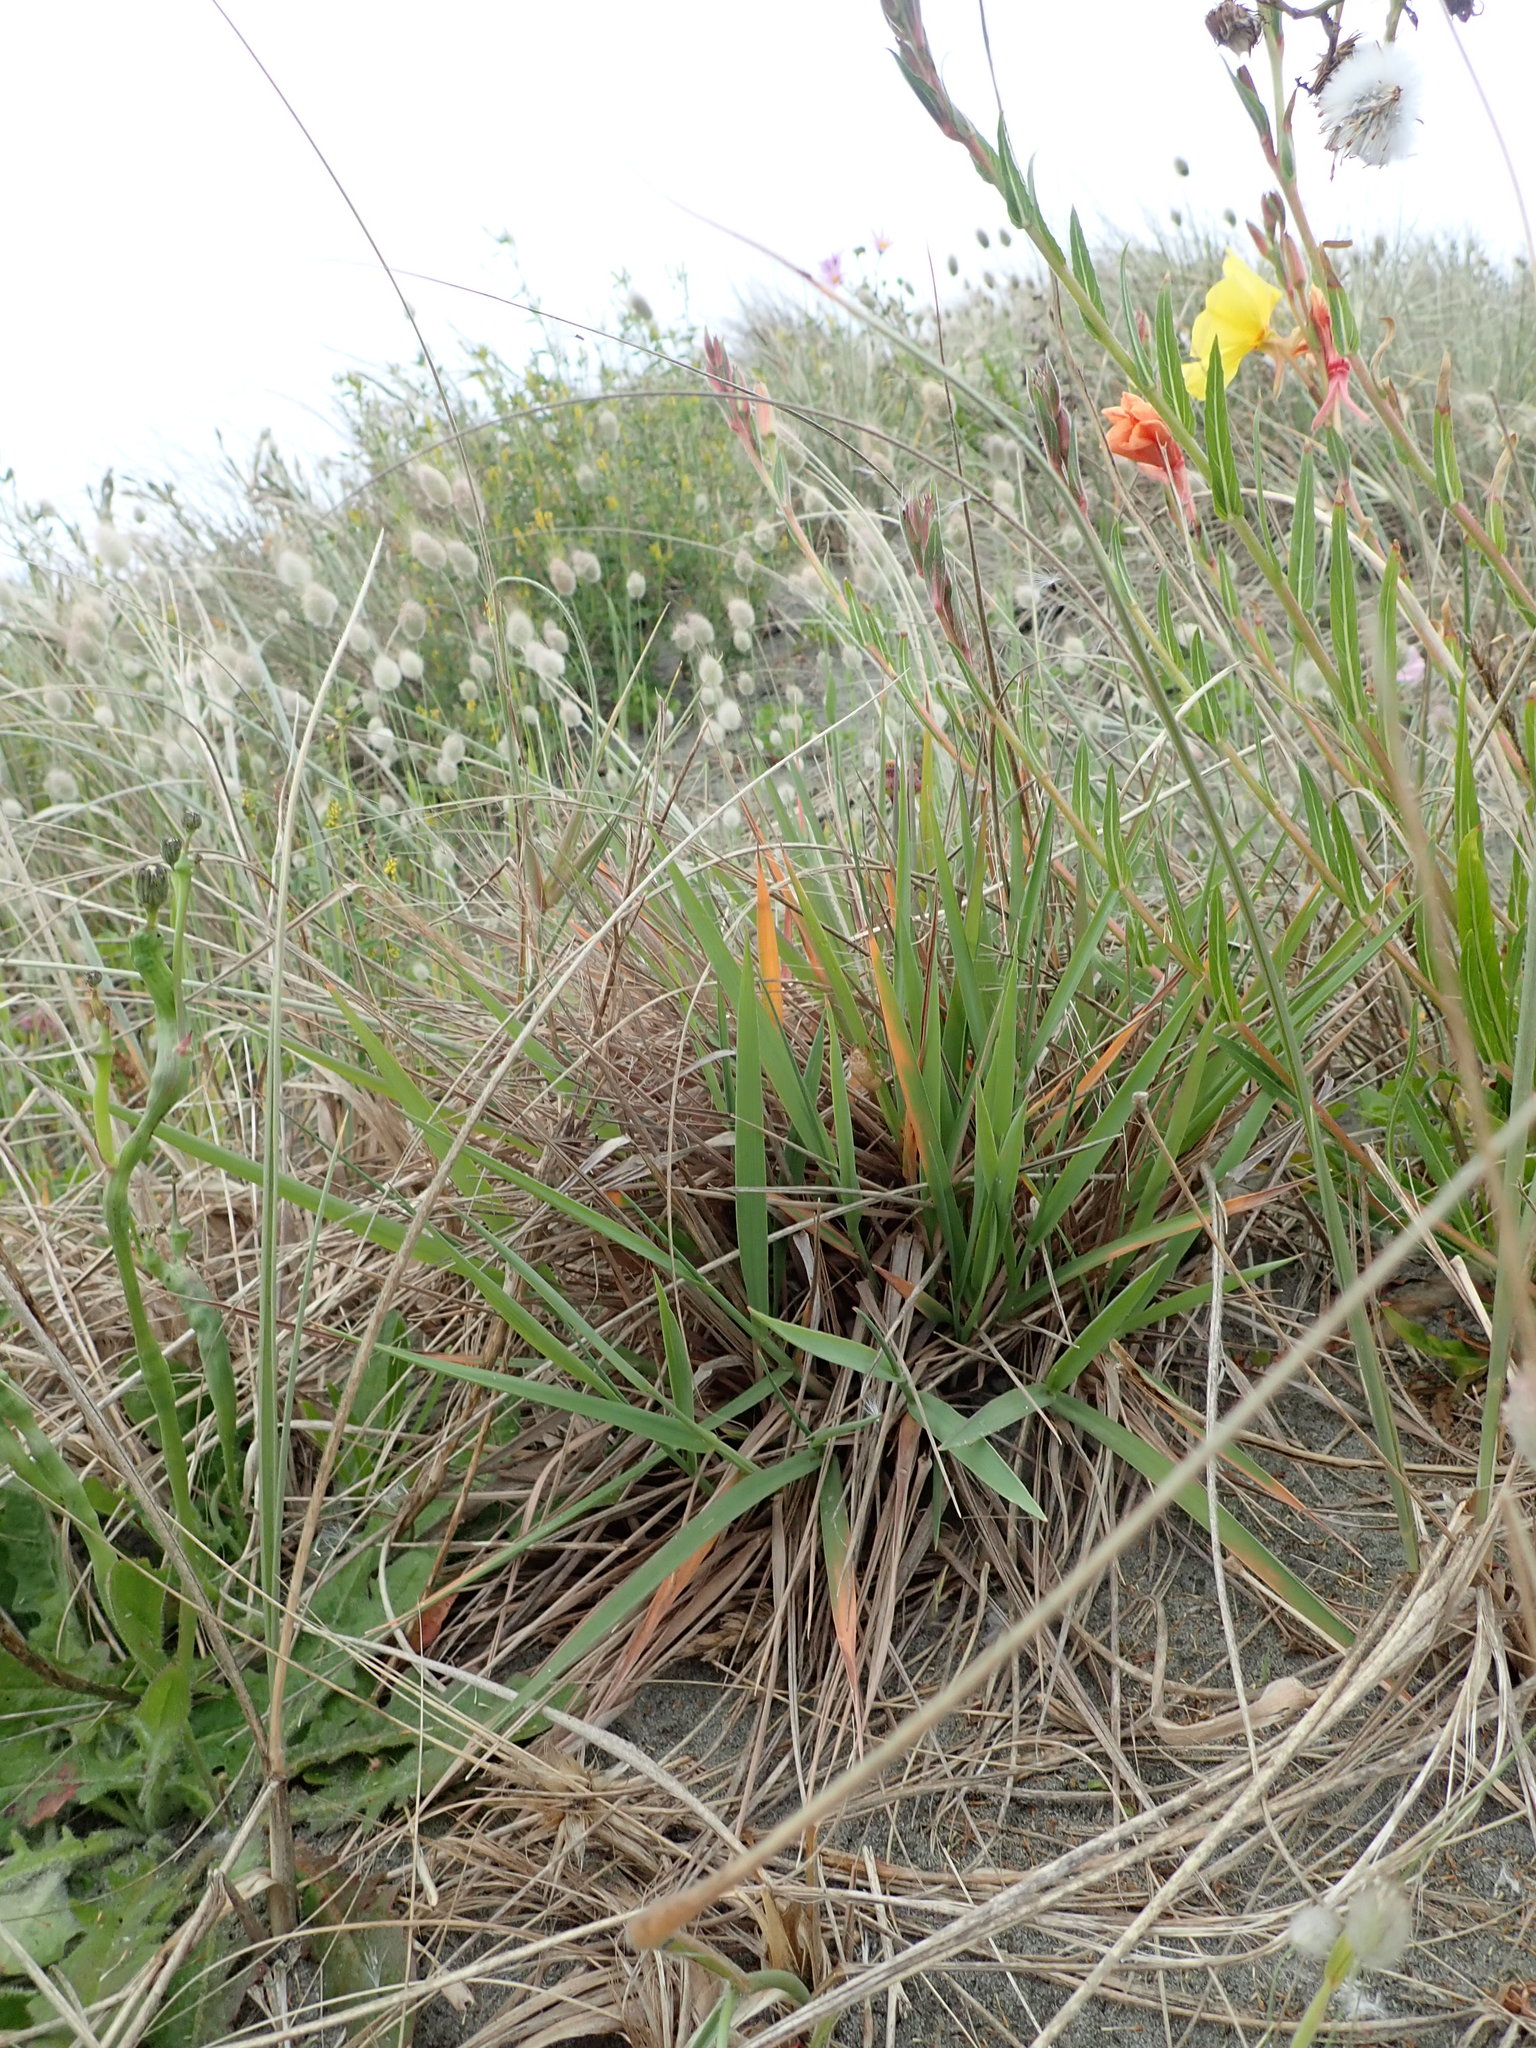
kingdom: Plantae
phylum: Tracheophyta
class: Liliopsida
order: Poales
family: Poaceae
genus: Lachnagrostis
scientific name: Lachnagrostis billardierei
